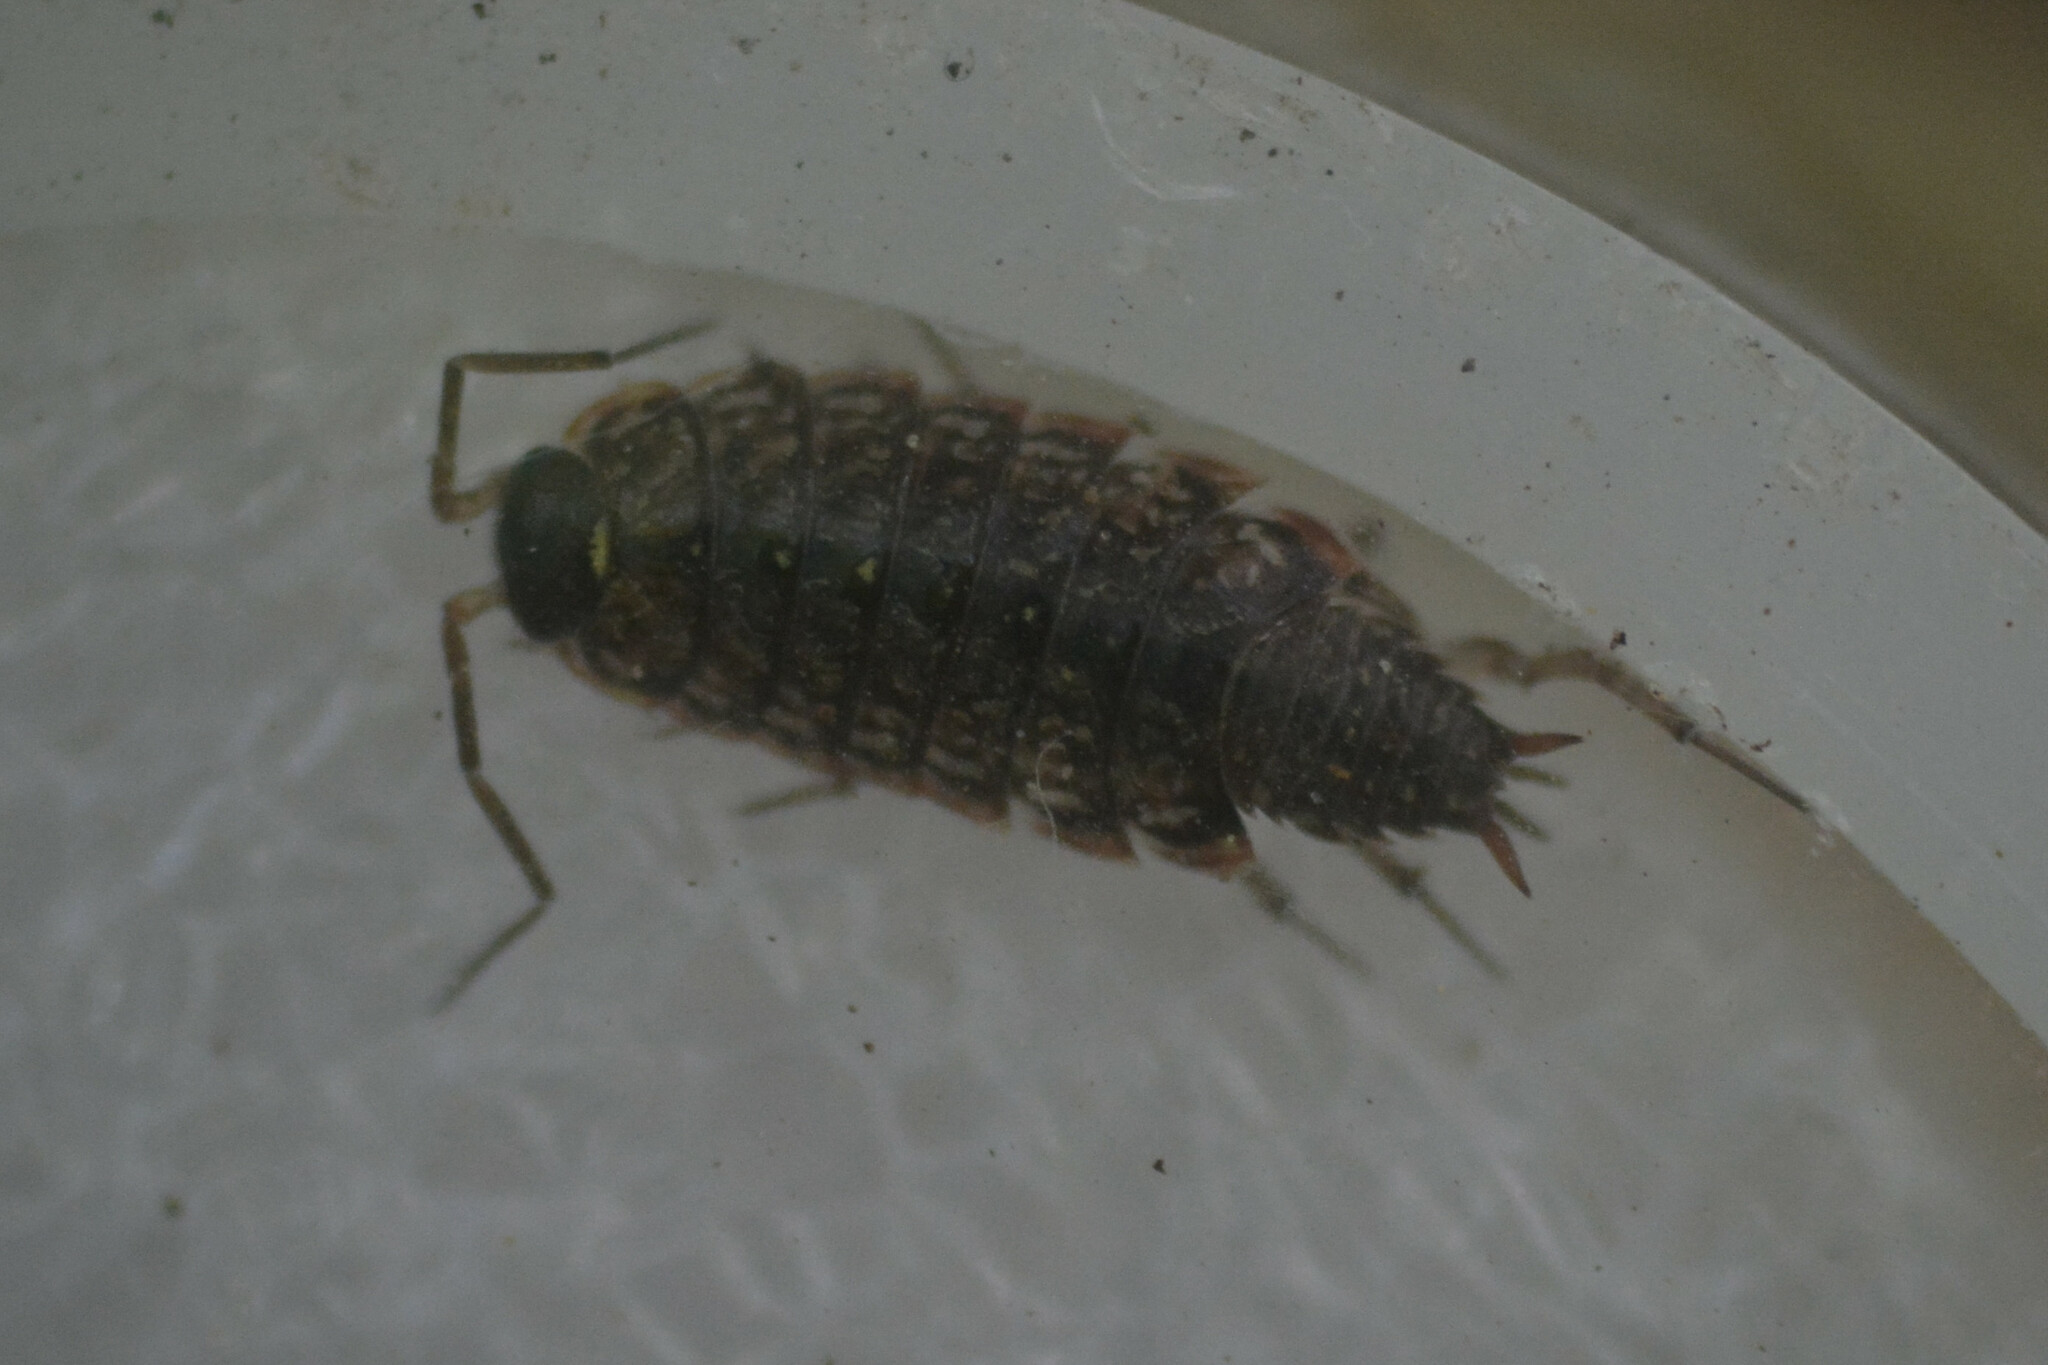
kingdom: Animalia
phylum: Arthropoda
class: Malacostraca
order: Isopoda
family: Philosciidae
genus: Philoscia
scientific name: Philoscia muscorum
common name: Common striped woodlouse
